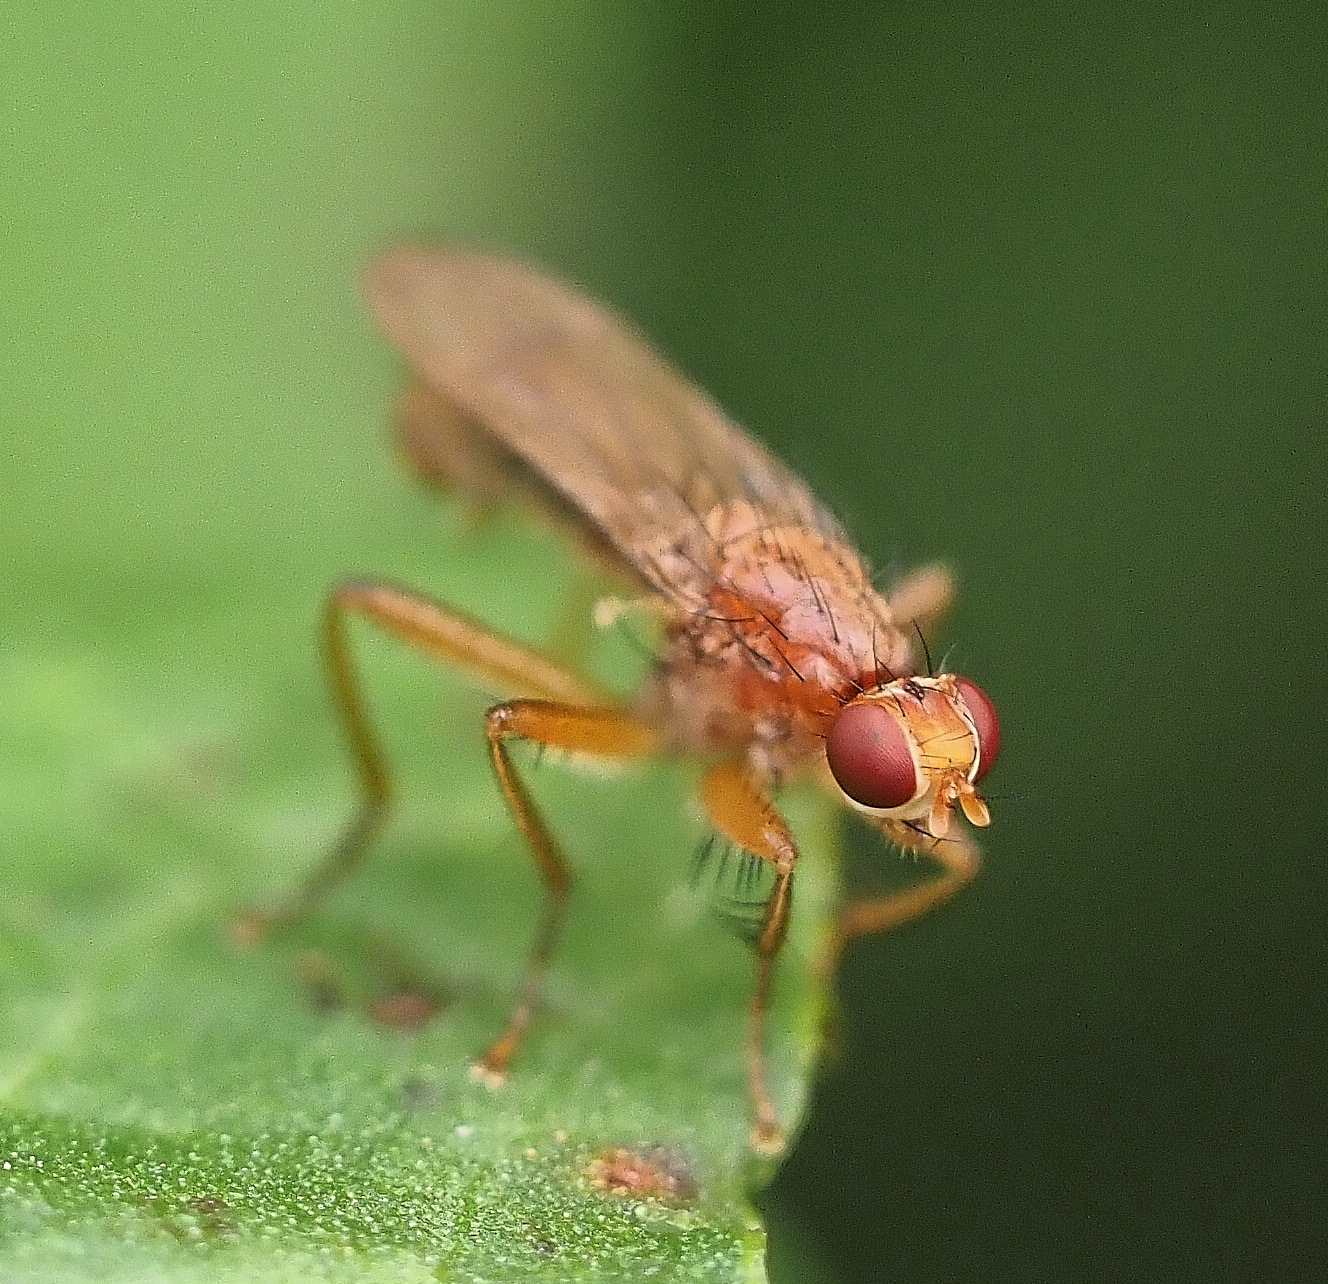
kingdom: Animalia
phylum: Arthropoda
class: Insecta
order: Diptera
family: Scathophagidae
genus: Norellisoma
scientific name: Norellisoma spinimanum
